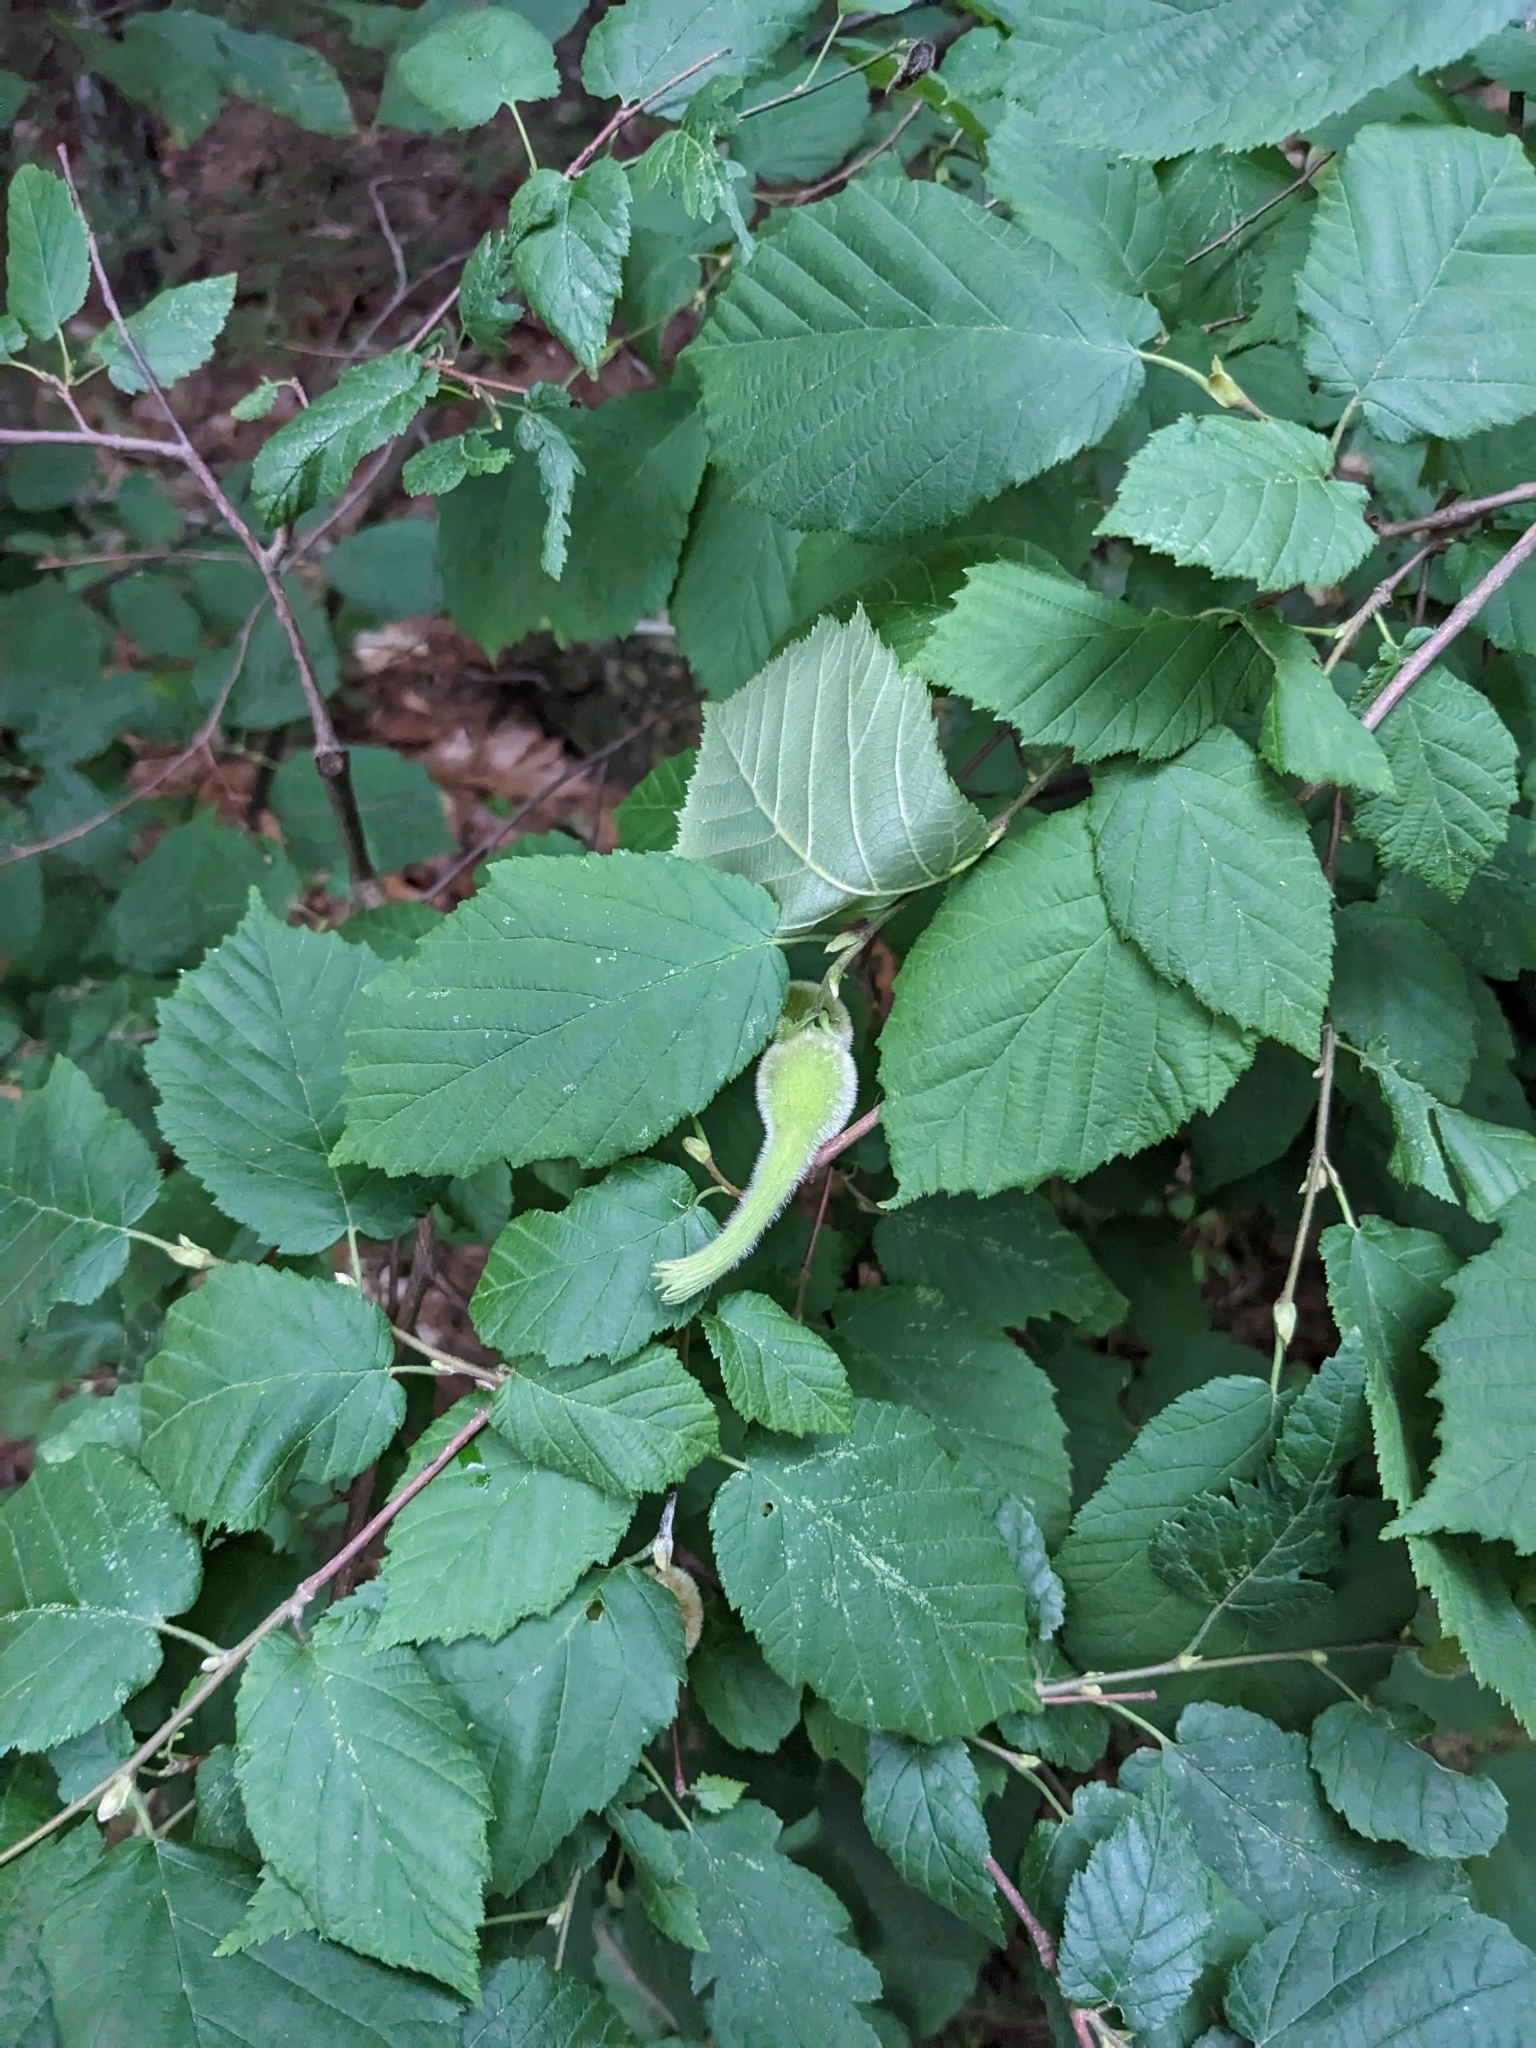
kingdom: Plantae
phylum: Tracheophyta
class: Magnoliopsida
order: Fagales
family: Betulaceae
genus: Corylus
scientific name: Corylus cornuta
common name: Beaked hazel
